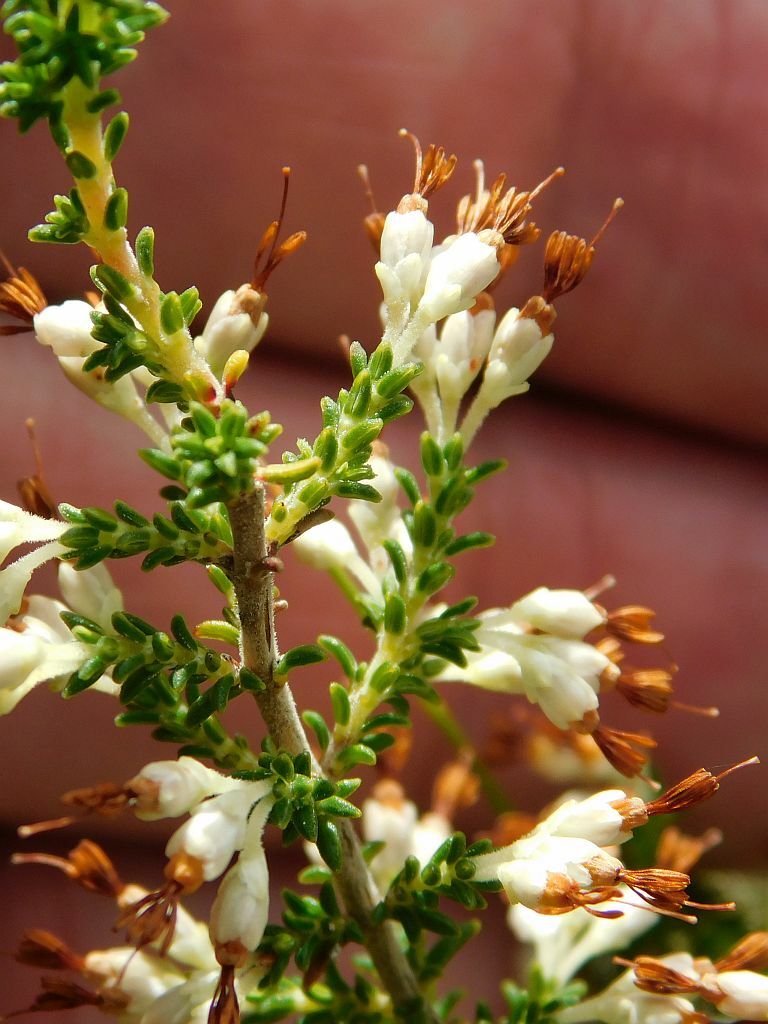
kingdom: Plantae
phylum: Tracheophyta
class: Magnoliopsida
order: Ericales
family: Ericaceae
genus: Erica
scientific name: Erica imbricata
